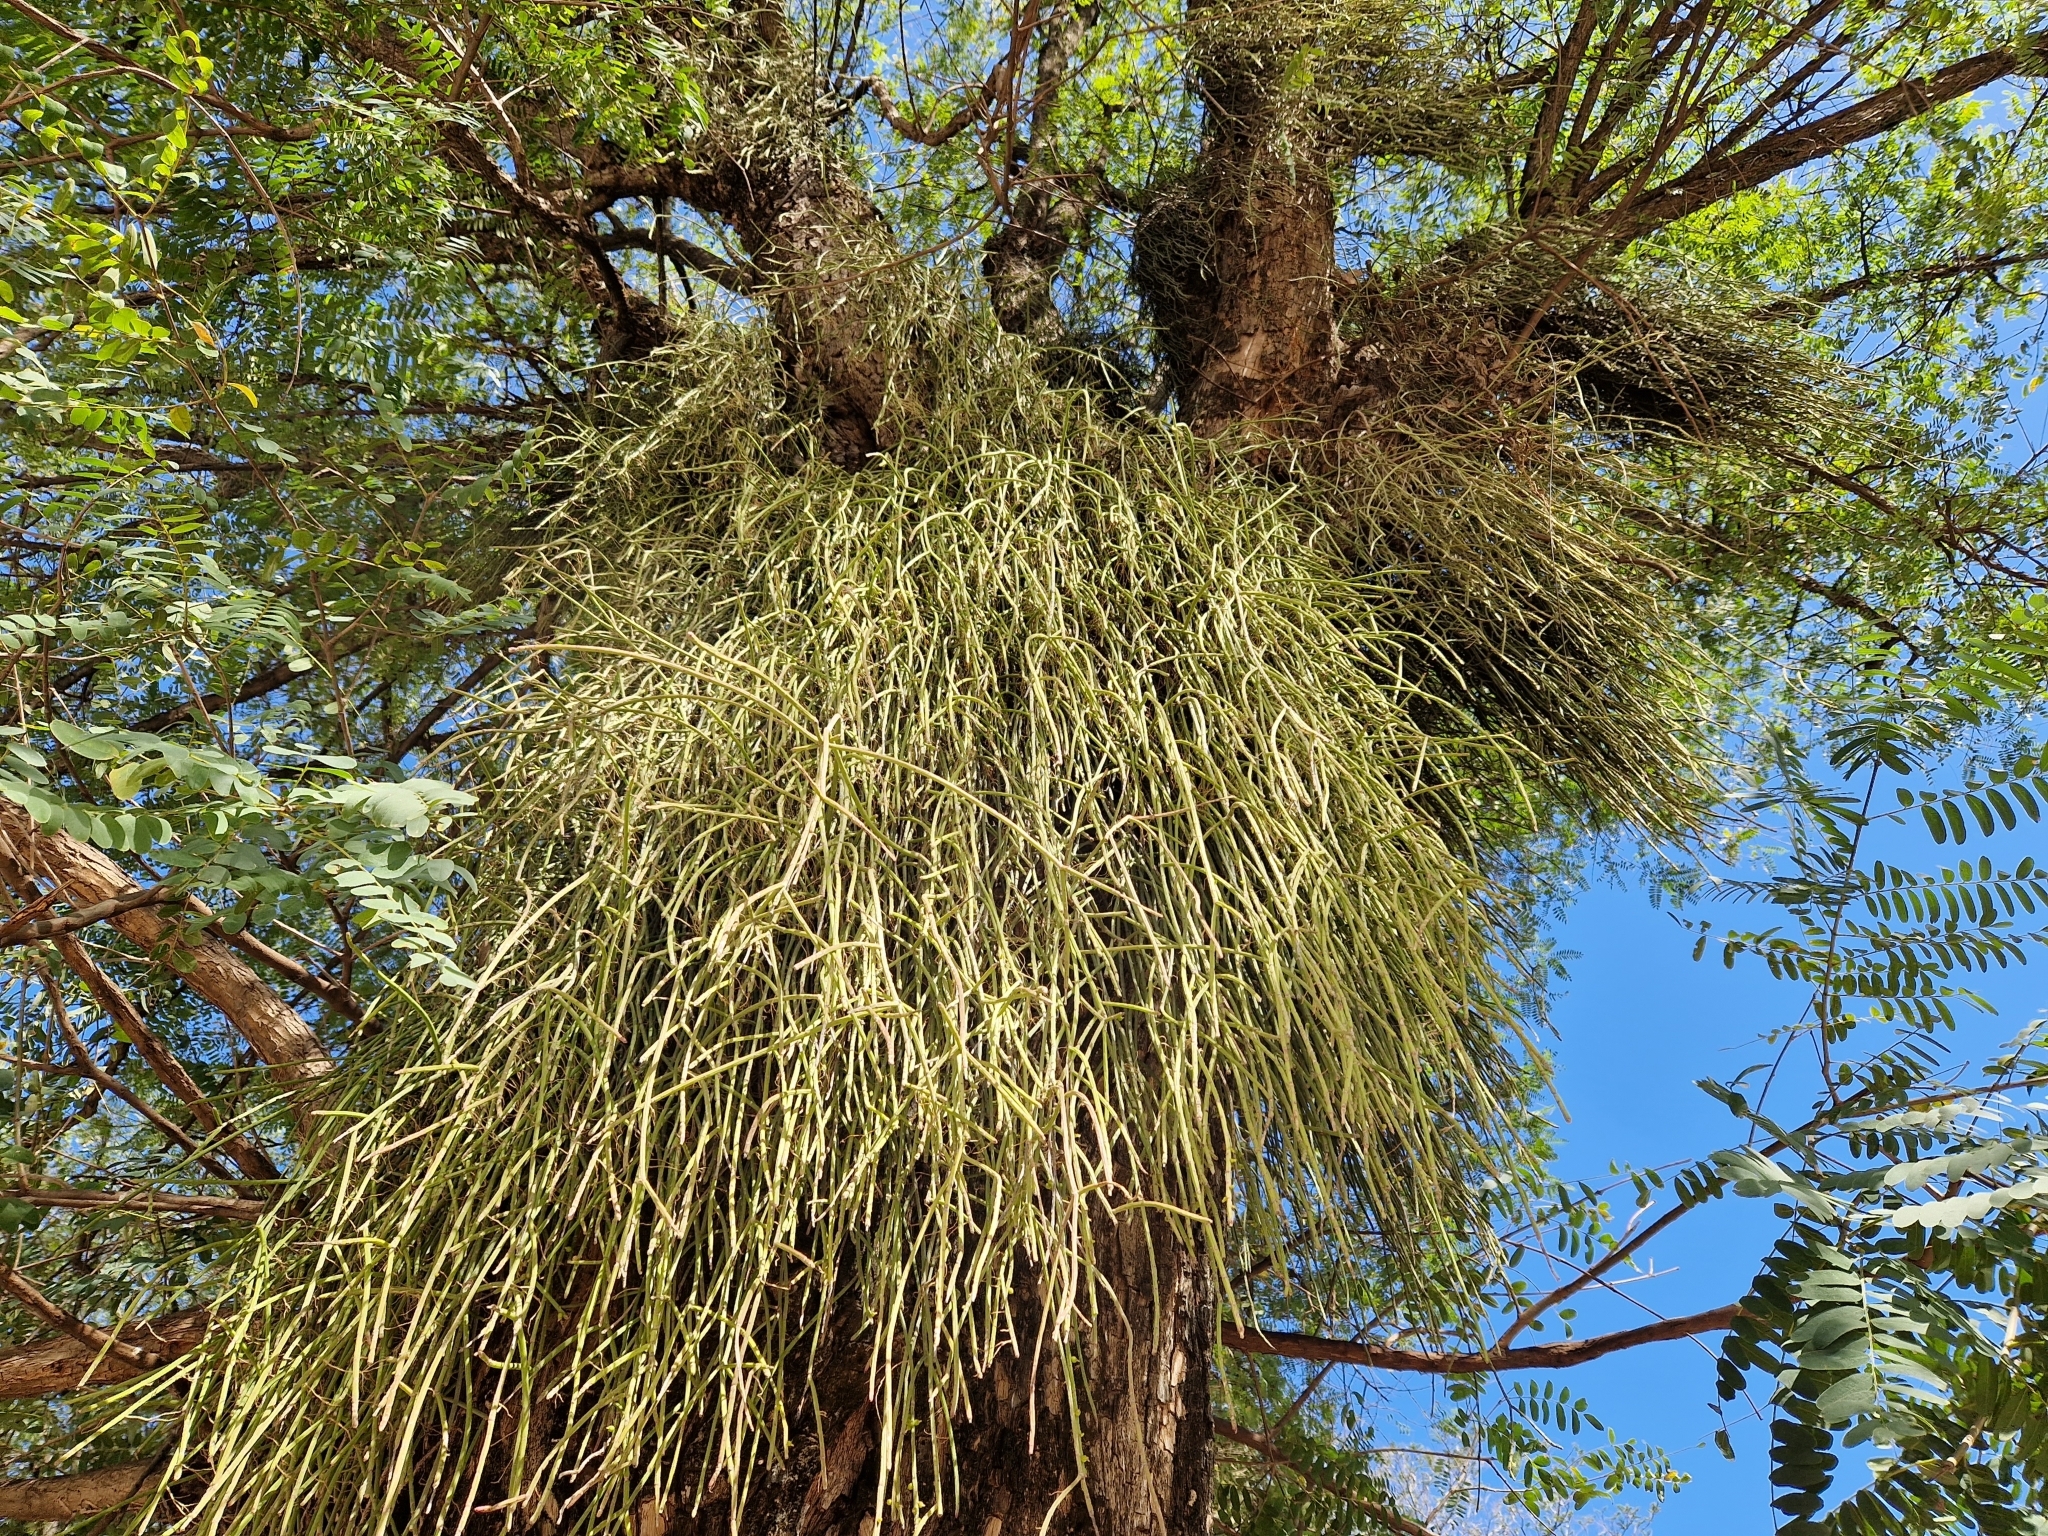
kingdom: Plantae
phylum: Tracheophyta
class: Magnoliopsida
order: Caryophyllales
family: Cactaceae
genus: Rhipsalis
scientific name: Rhipsalis baccifera
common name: Mistletoe cactus
